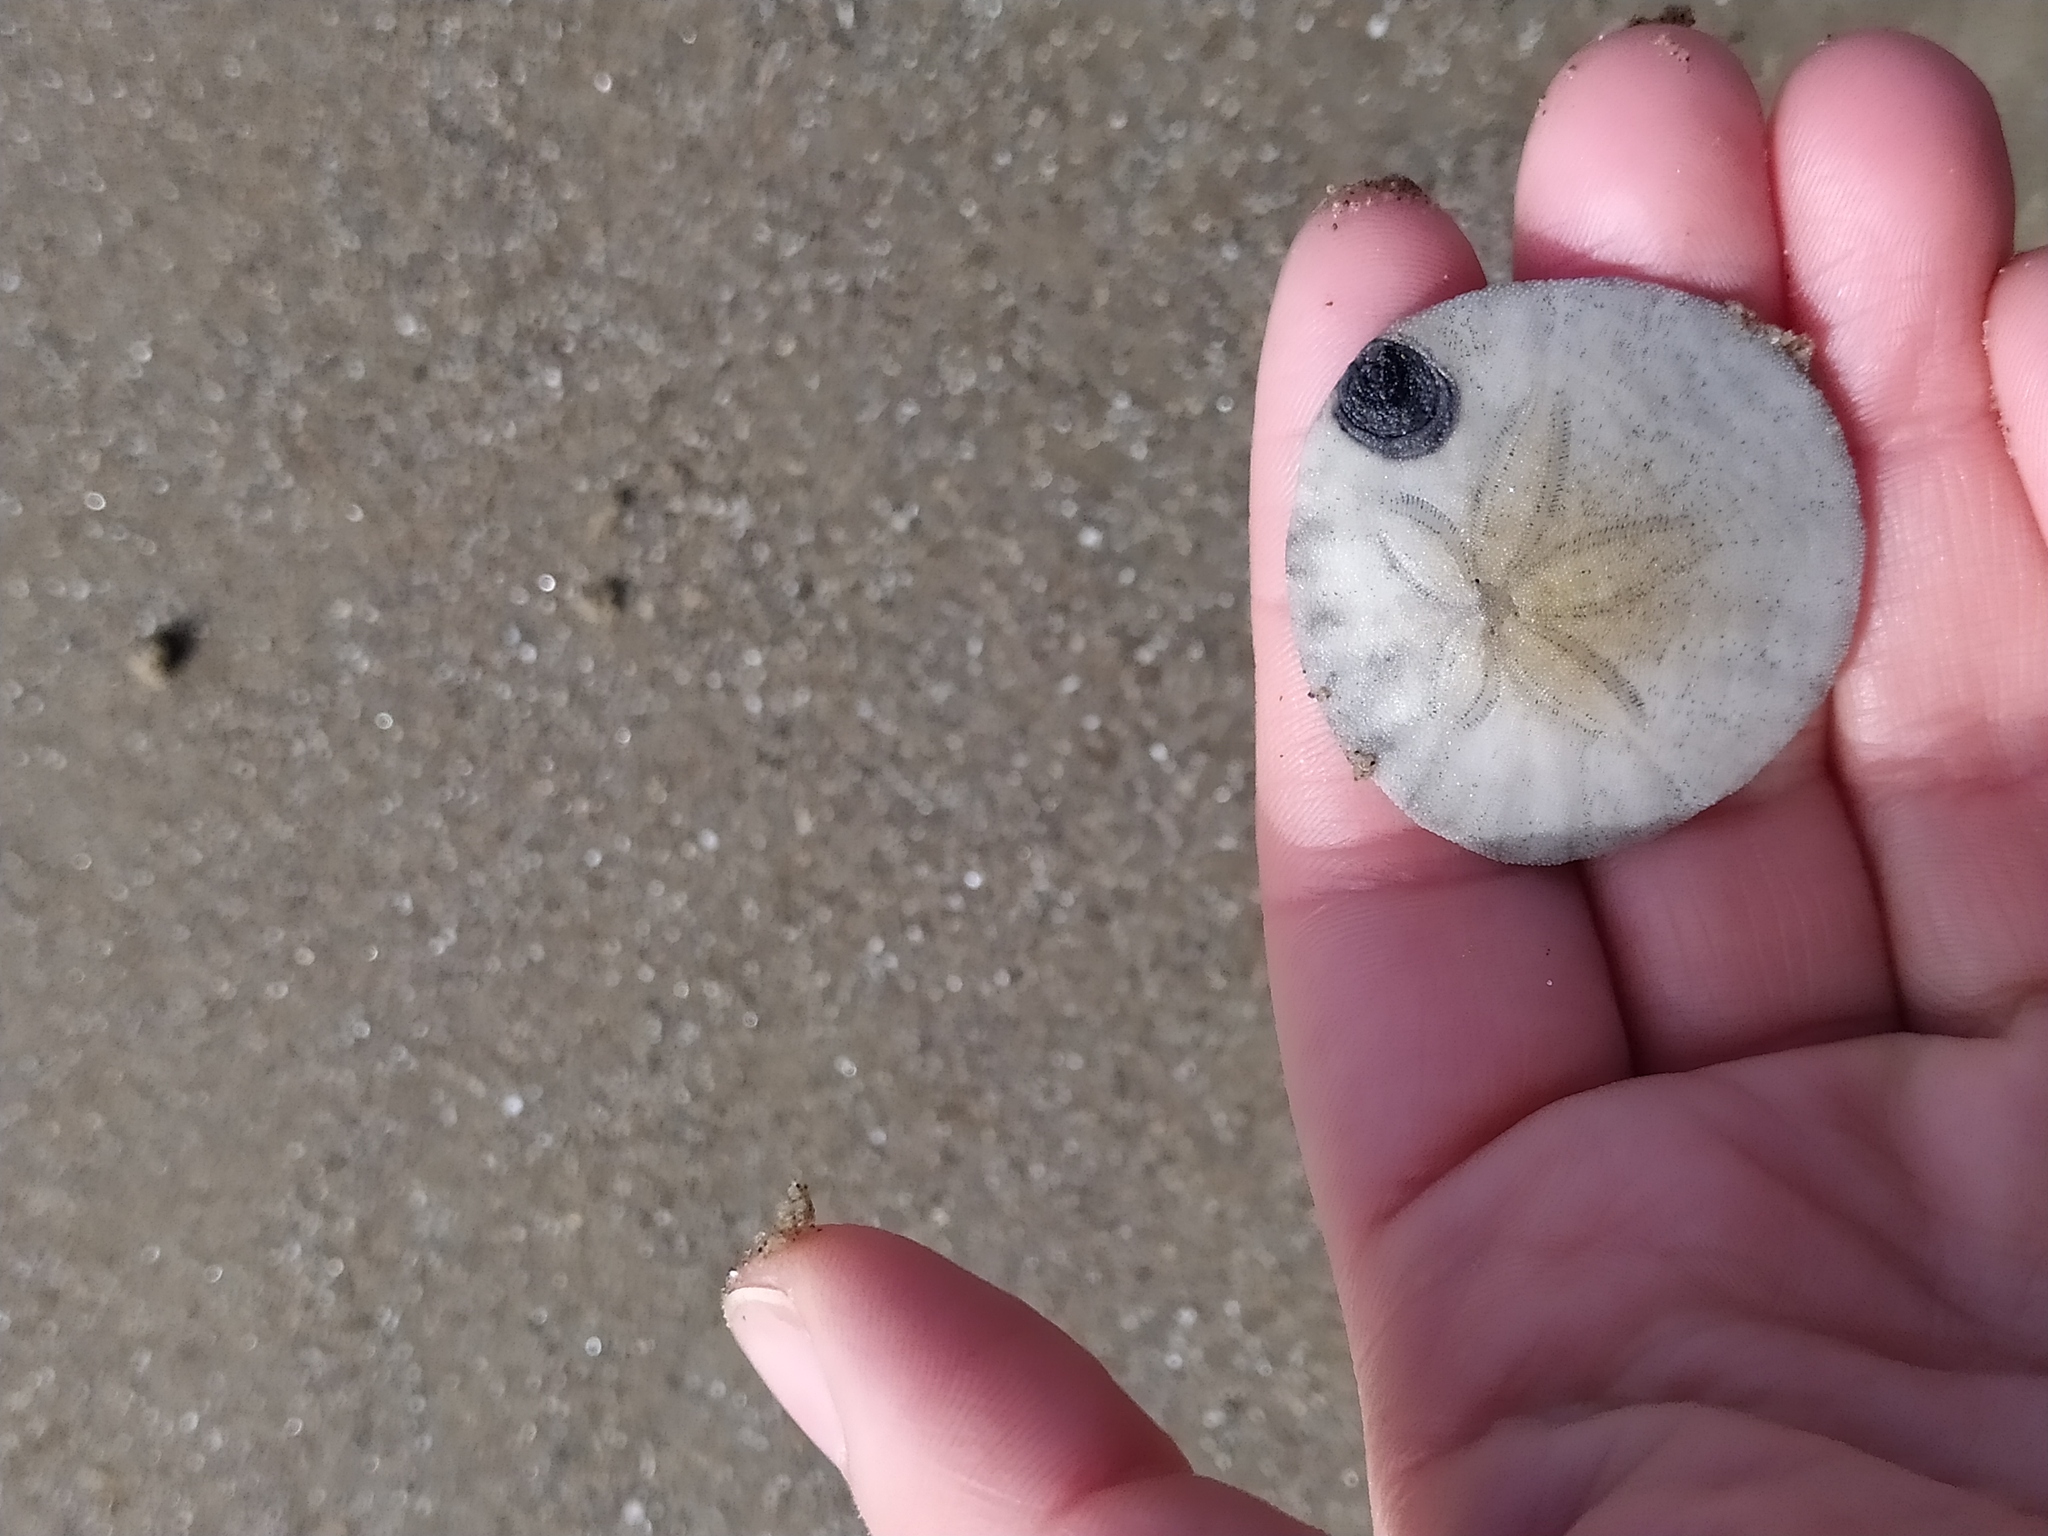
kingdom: Animalia
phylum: Echinodermata
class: Echinoidea
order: Echinolampadacea
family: Dendrasteridae
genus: Dendraster
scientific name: Dendraster excentricus
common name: Eccentric sand dollar sea urchin
